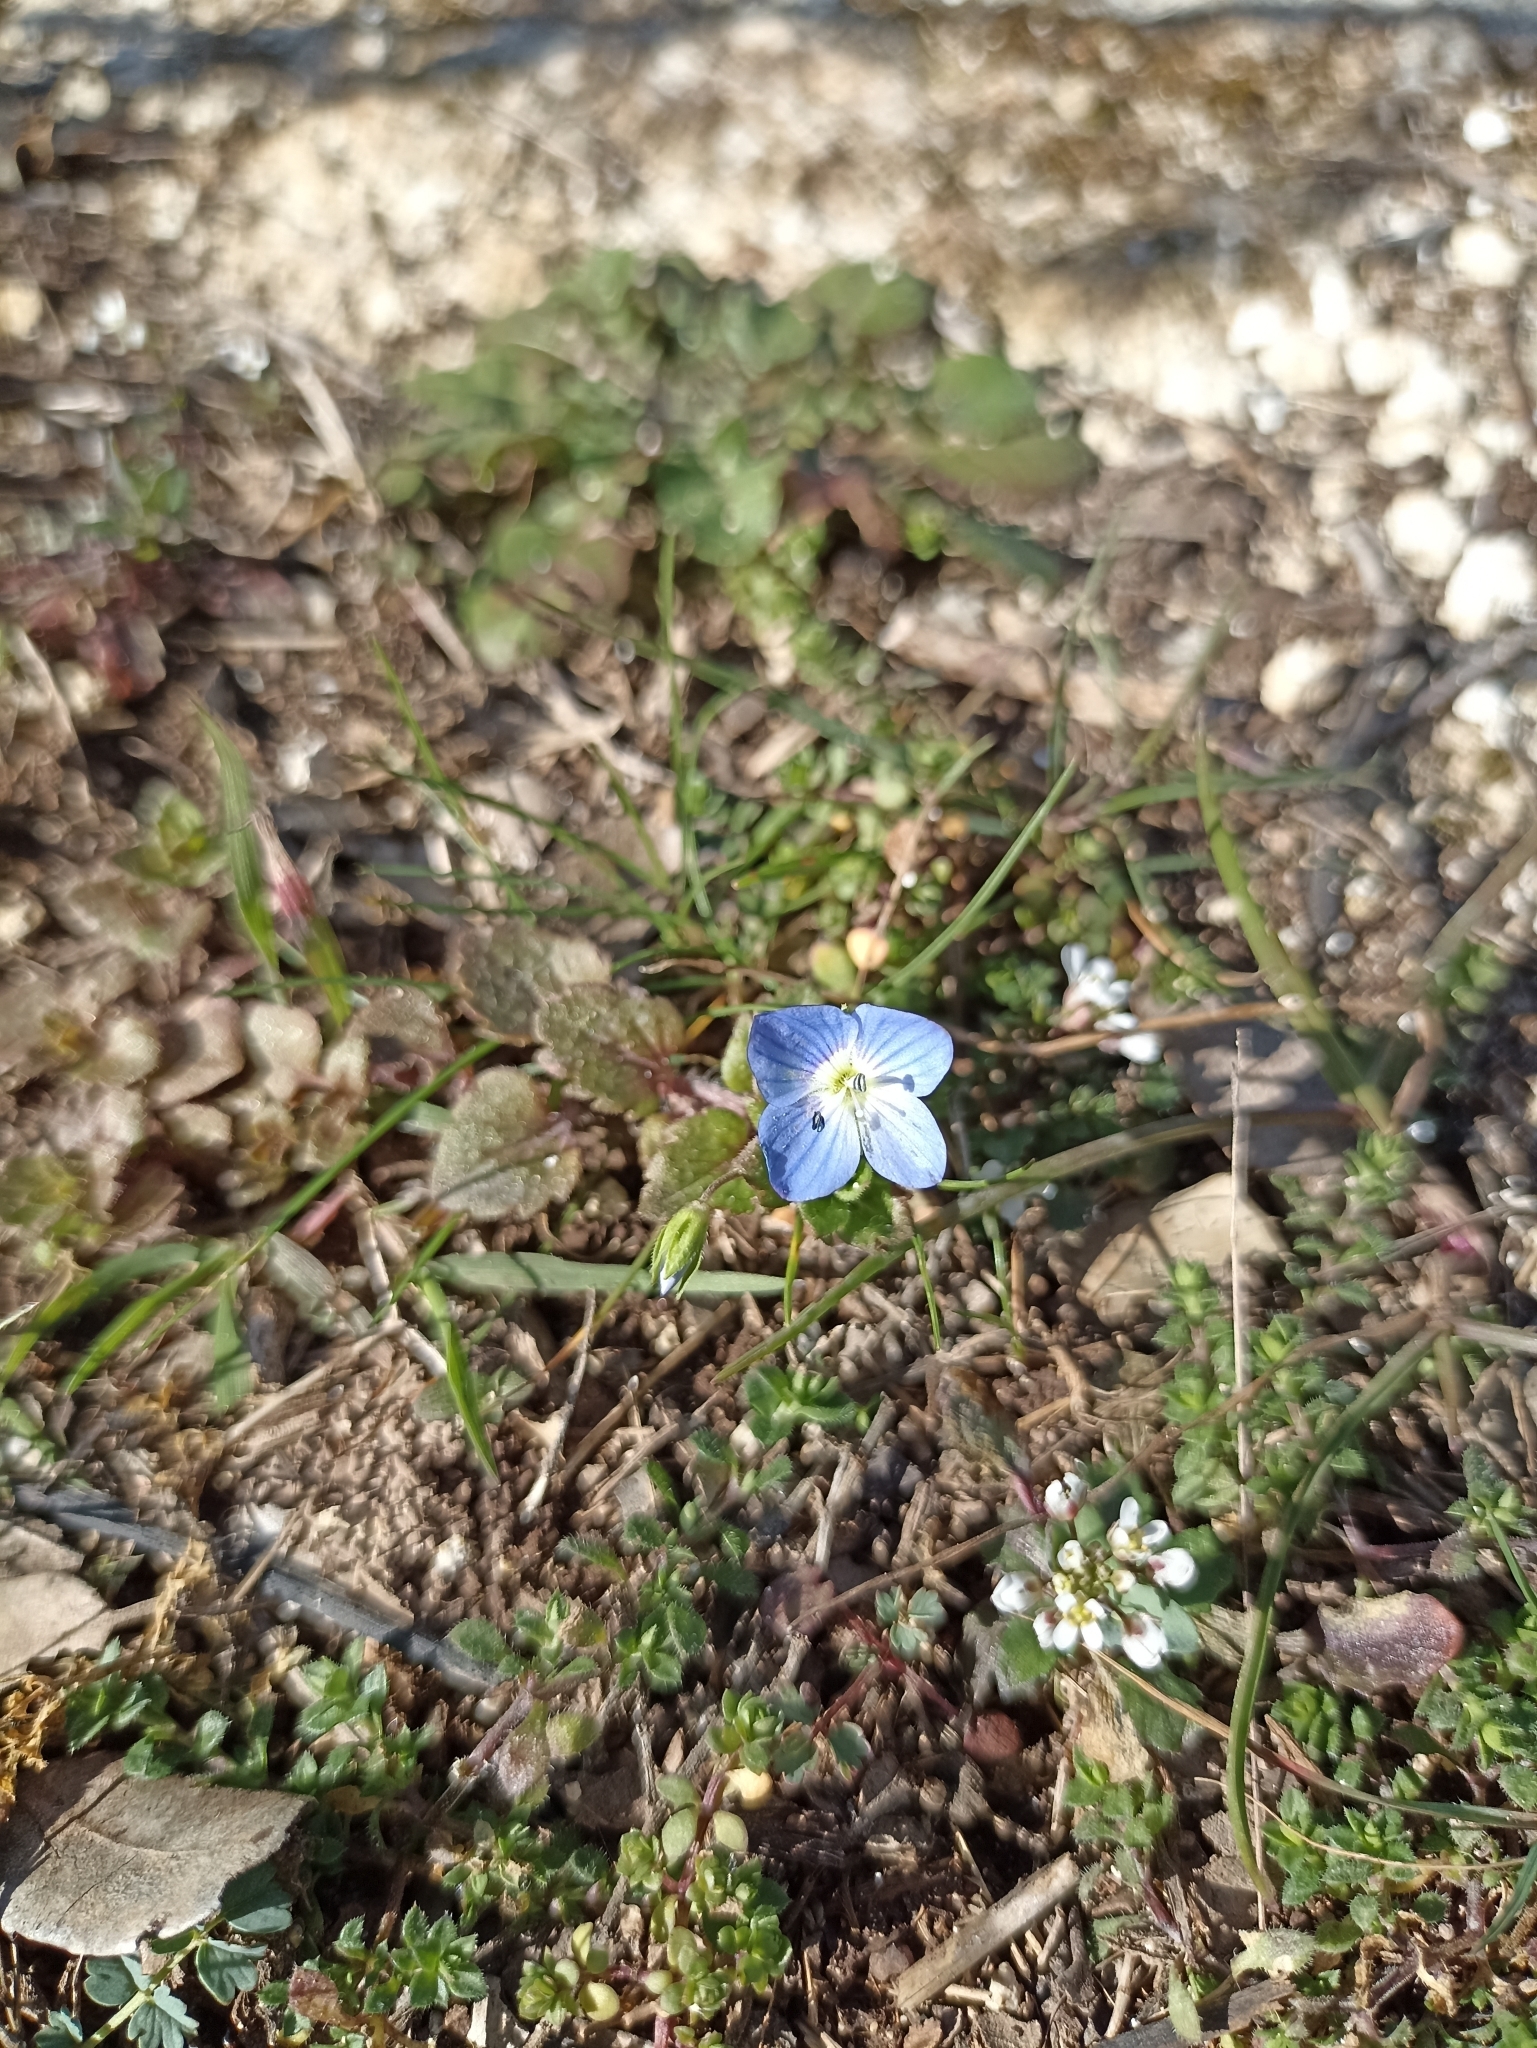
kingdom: Plantae
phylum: Tracheophyta
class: Magnoliopsida
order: Lamiales
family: Plantaginaceae
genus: Veronica
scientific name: Veronica persica
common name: Common field-speedwell
